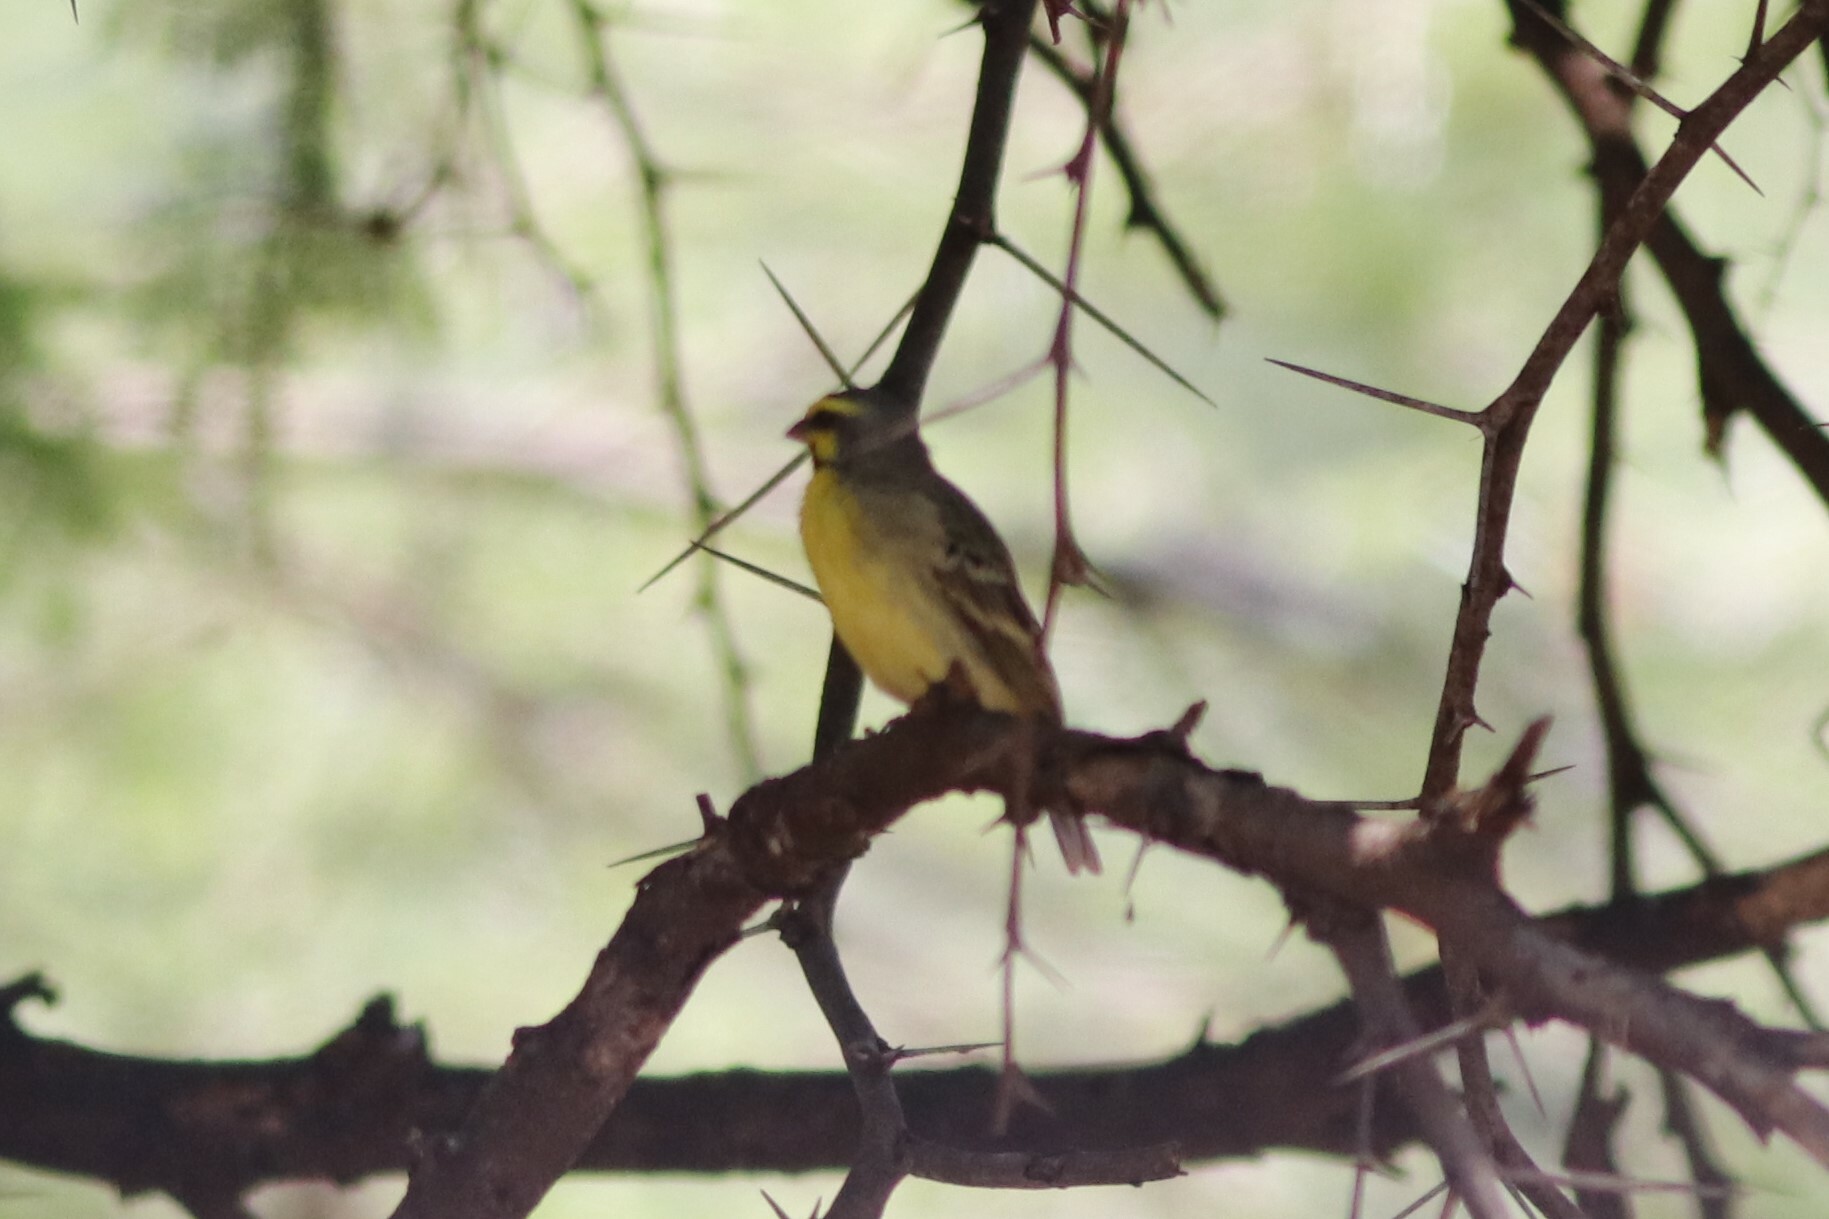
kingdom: Animalia
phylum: Chordata
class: Aves
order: Passeriformes
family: Fringillidae
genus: Crithagra
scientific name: Crithagra mozambica
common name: Yellow-fronted canary
